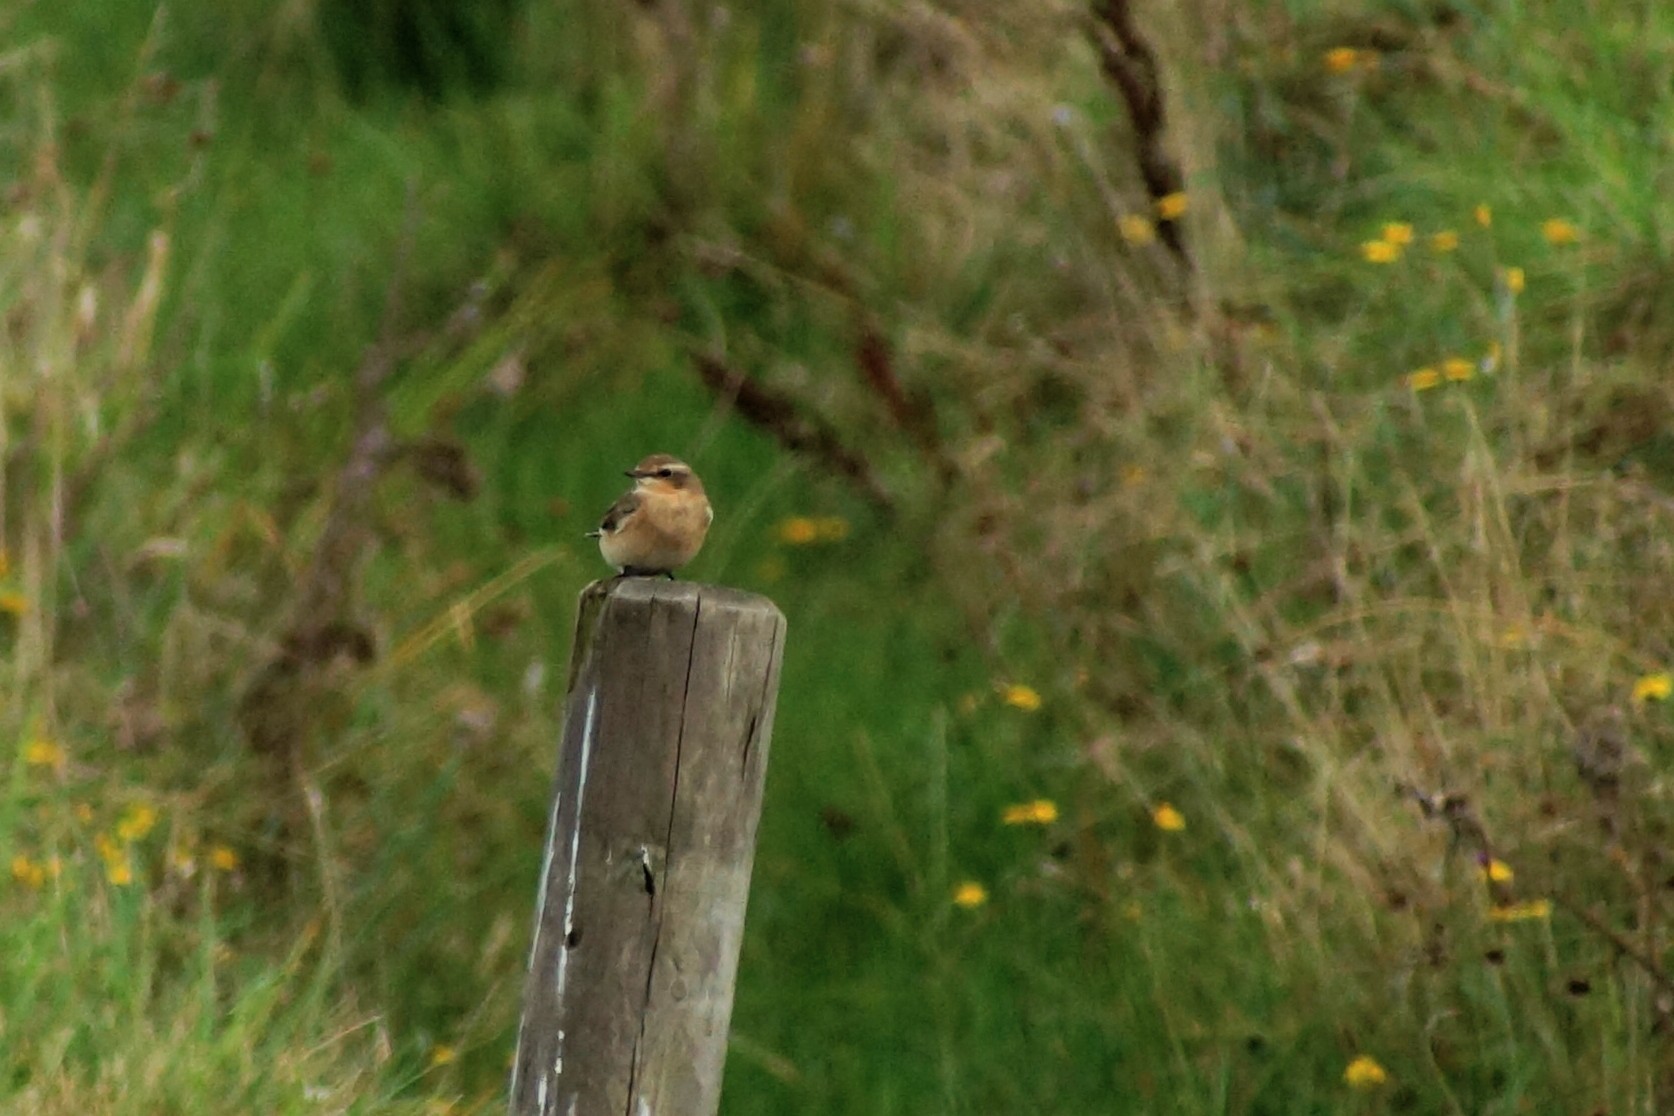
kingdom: Animalia
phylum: Chordata
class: Aves
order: Passeriformes
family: Muscicapidae
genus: Oenanthe
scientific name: Oenanthe oenanthe
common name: Northern wheatear
